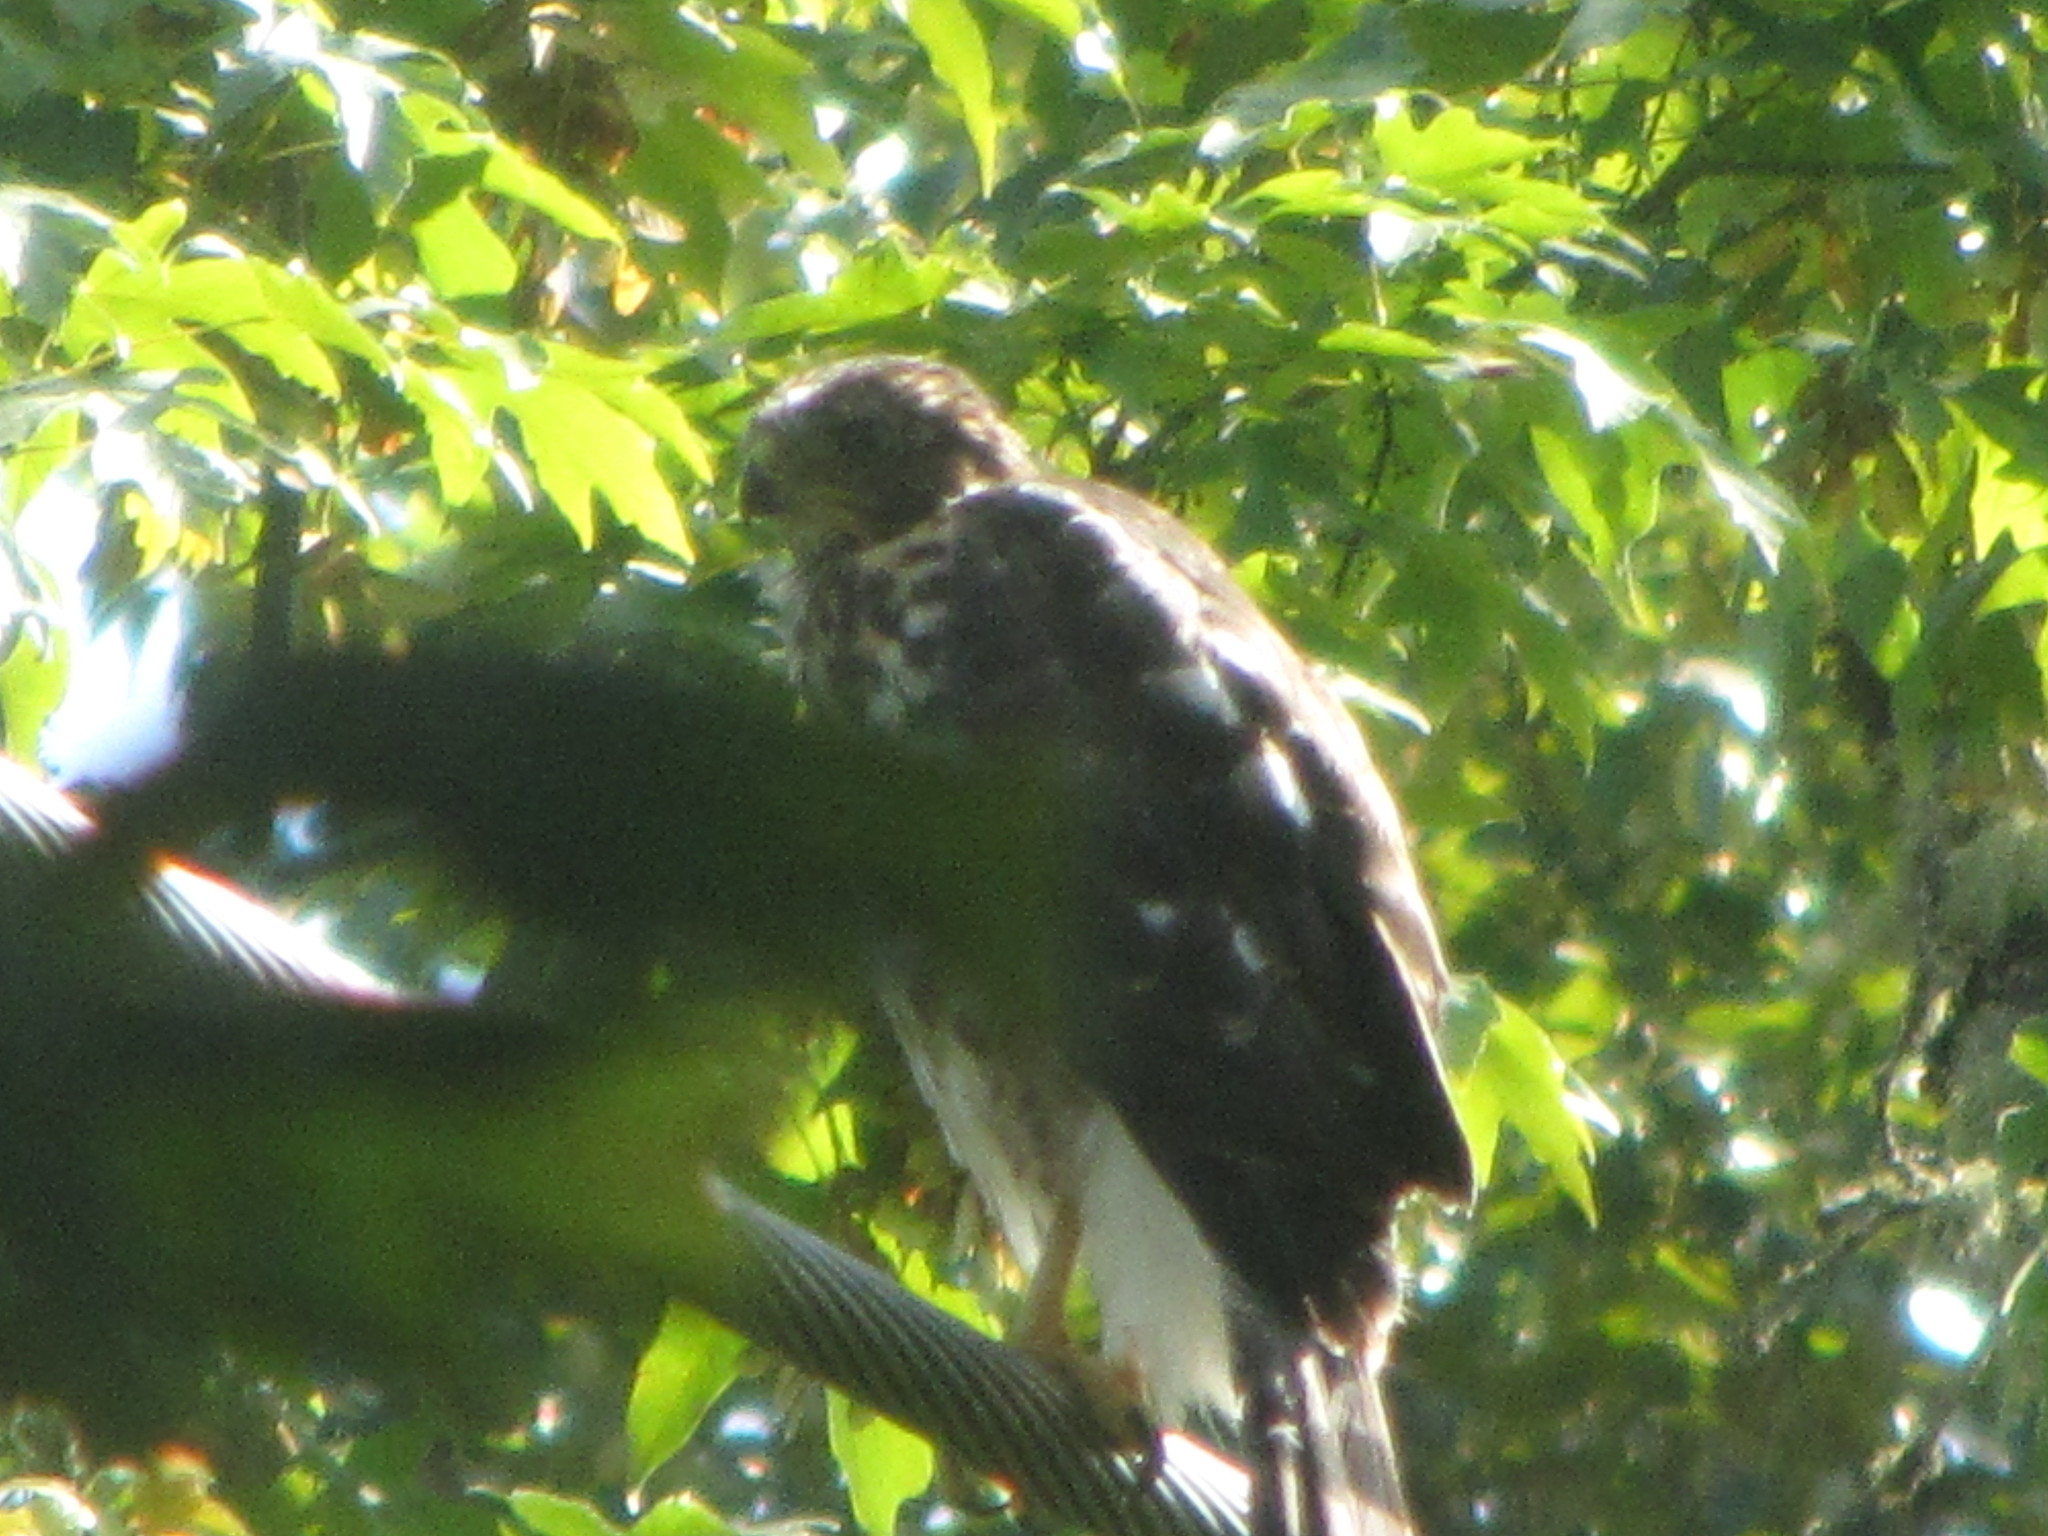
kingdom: Animalia
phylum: Chordata
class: Aves
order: Accipitriformes
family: Accipitridae
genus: Accipiter
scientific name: Accipiter cooperii
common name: Cooper's hawk
